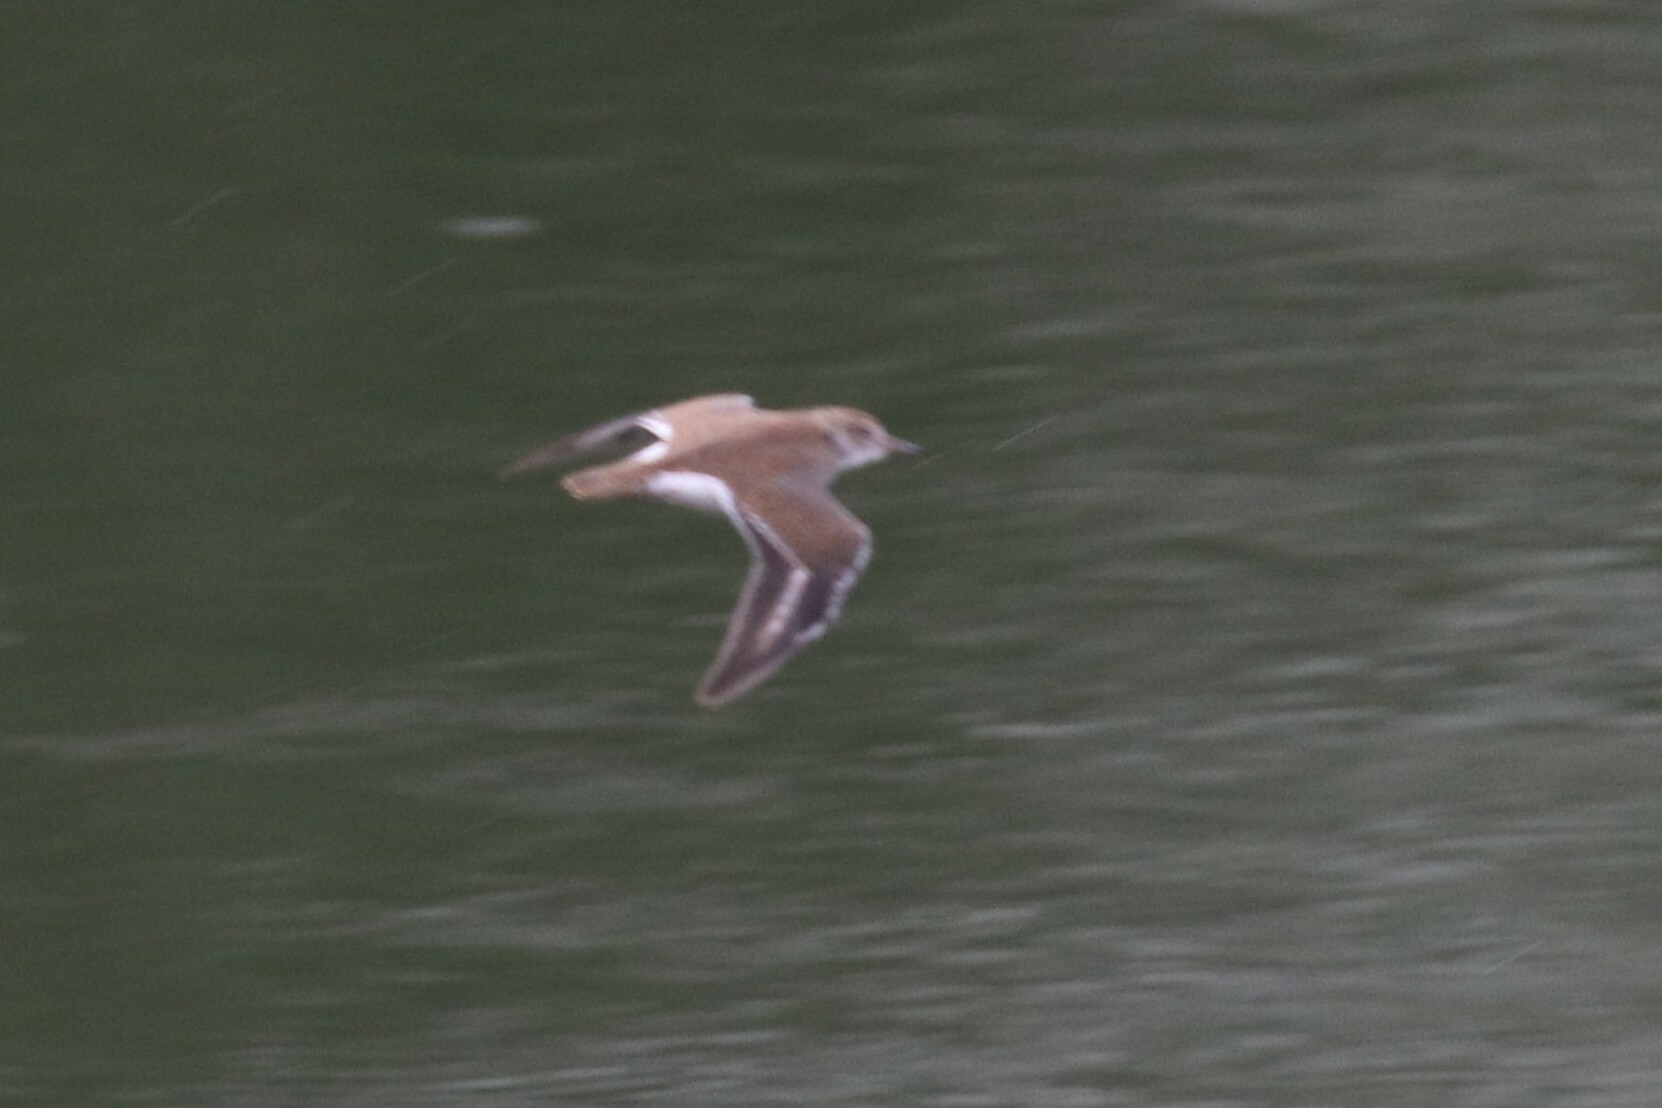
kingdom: Animalia
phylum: Chordata
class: Aves
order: Charadriiformes
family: Scolopacidae
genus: Actitis
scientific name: Actitis hypoleucos
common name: Common sandpiper
